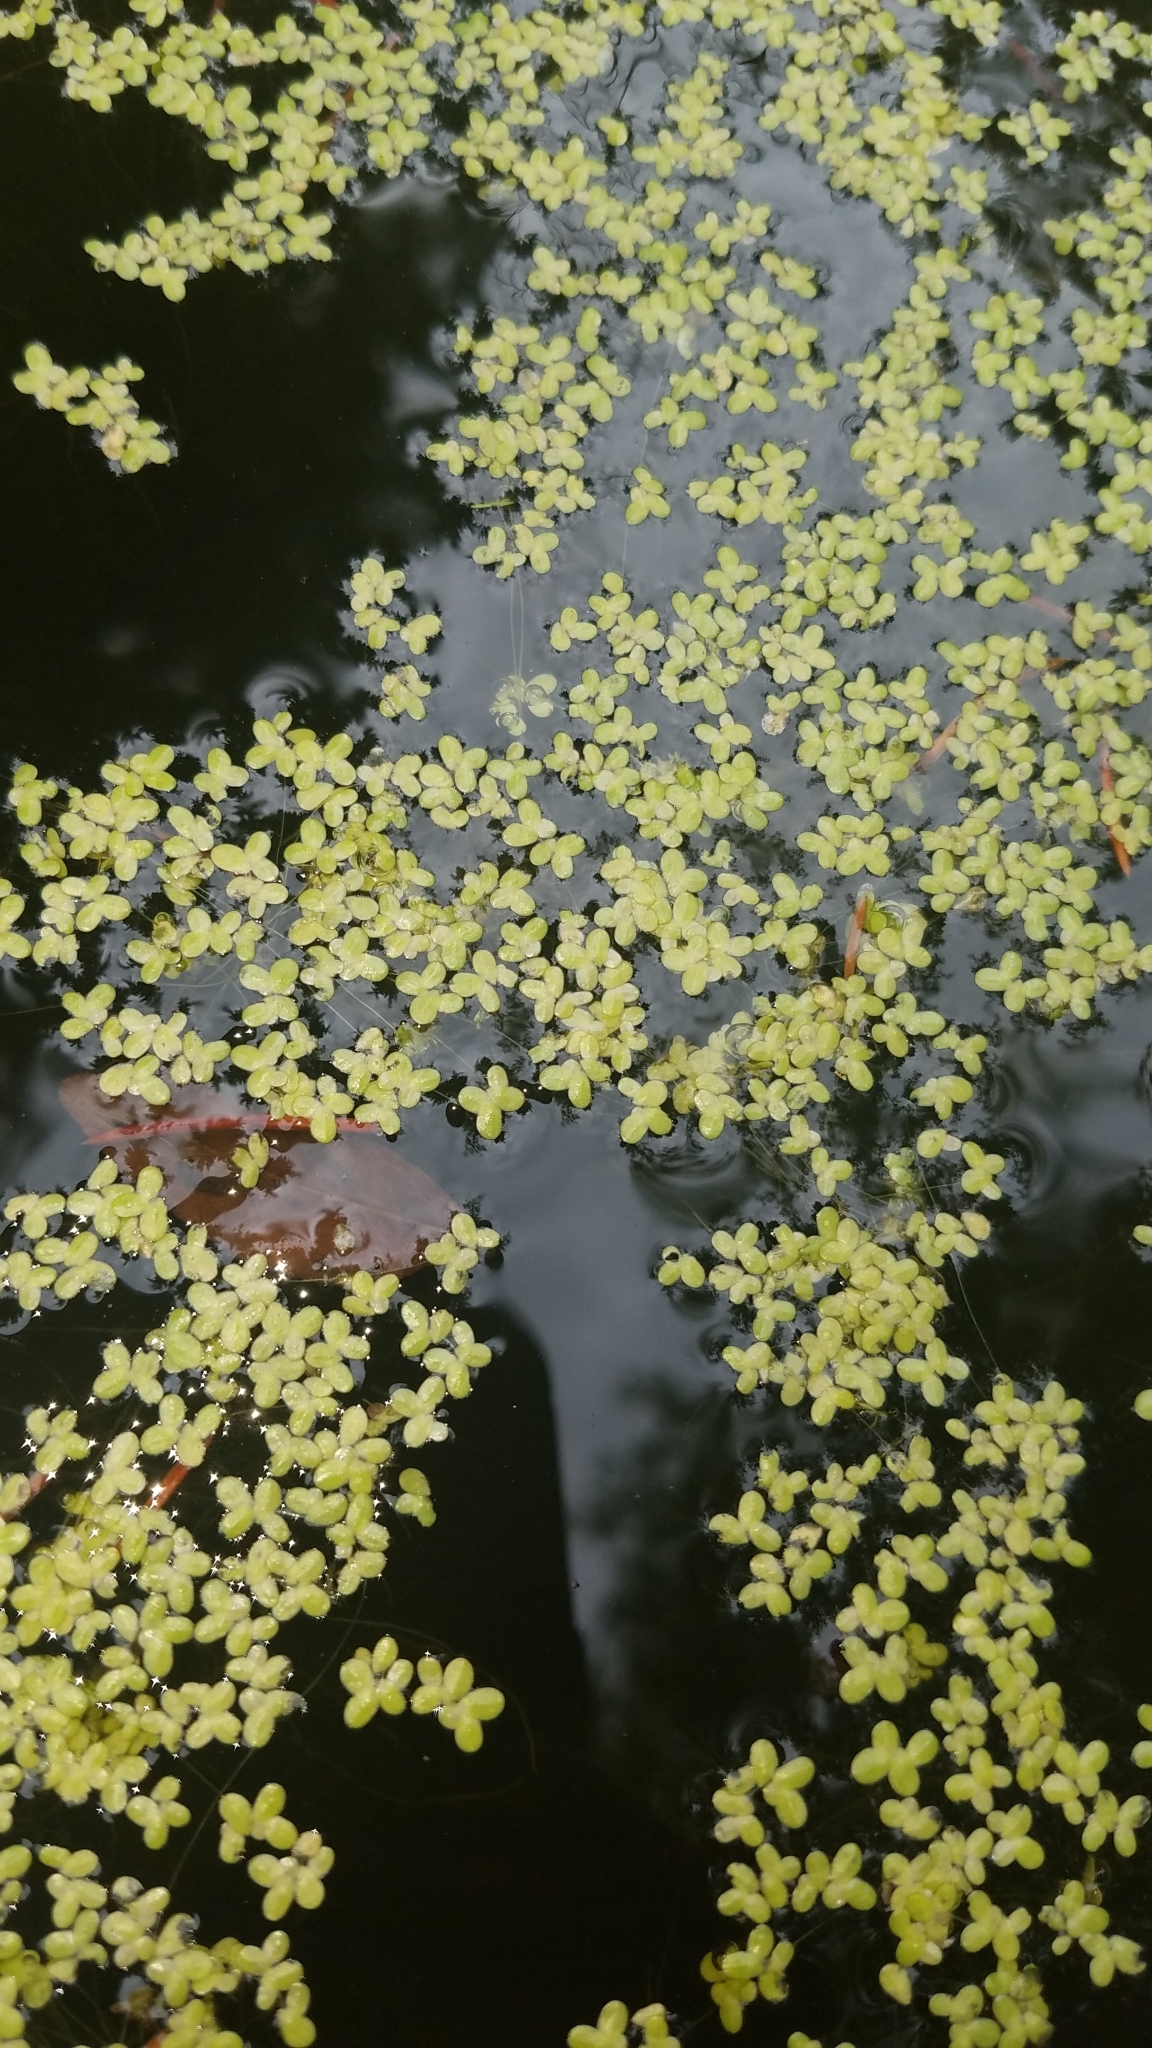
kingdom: Plantae
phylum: Tracheophyta
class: Liliopsida
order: Alismatales
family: Araceae
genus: Lemna
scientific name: Lemna minor
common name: Common duckweed
